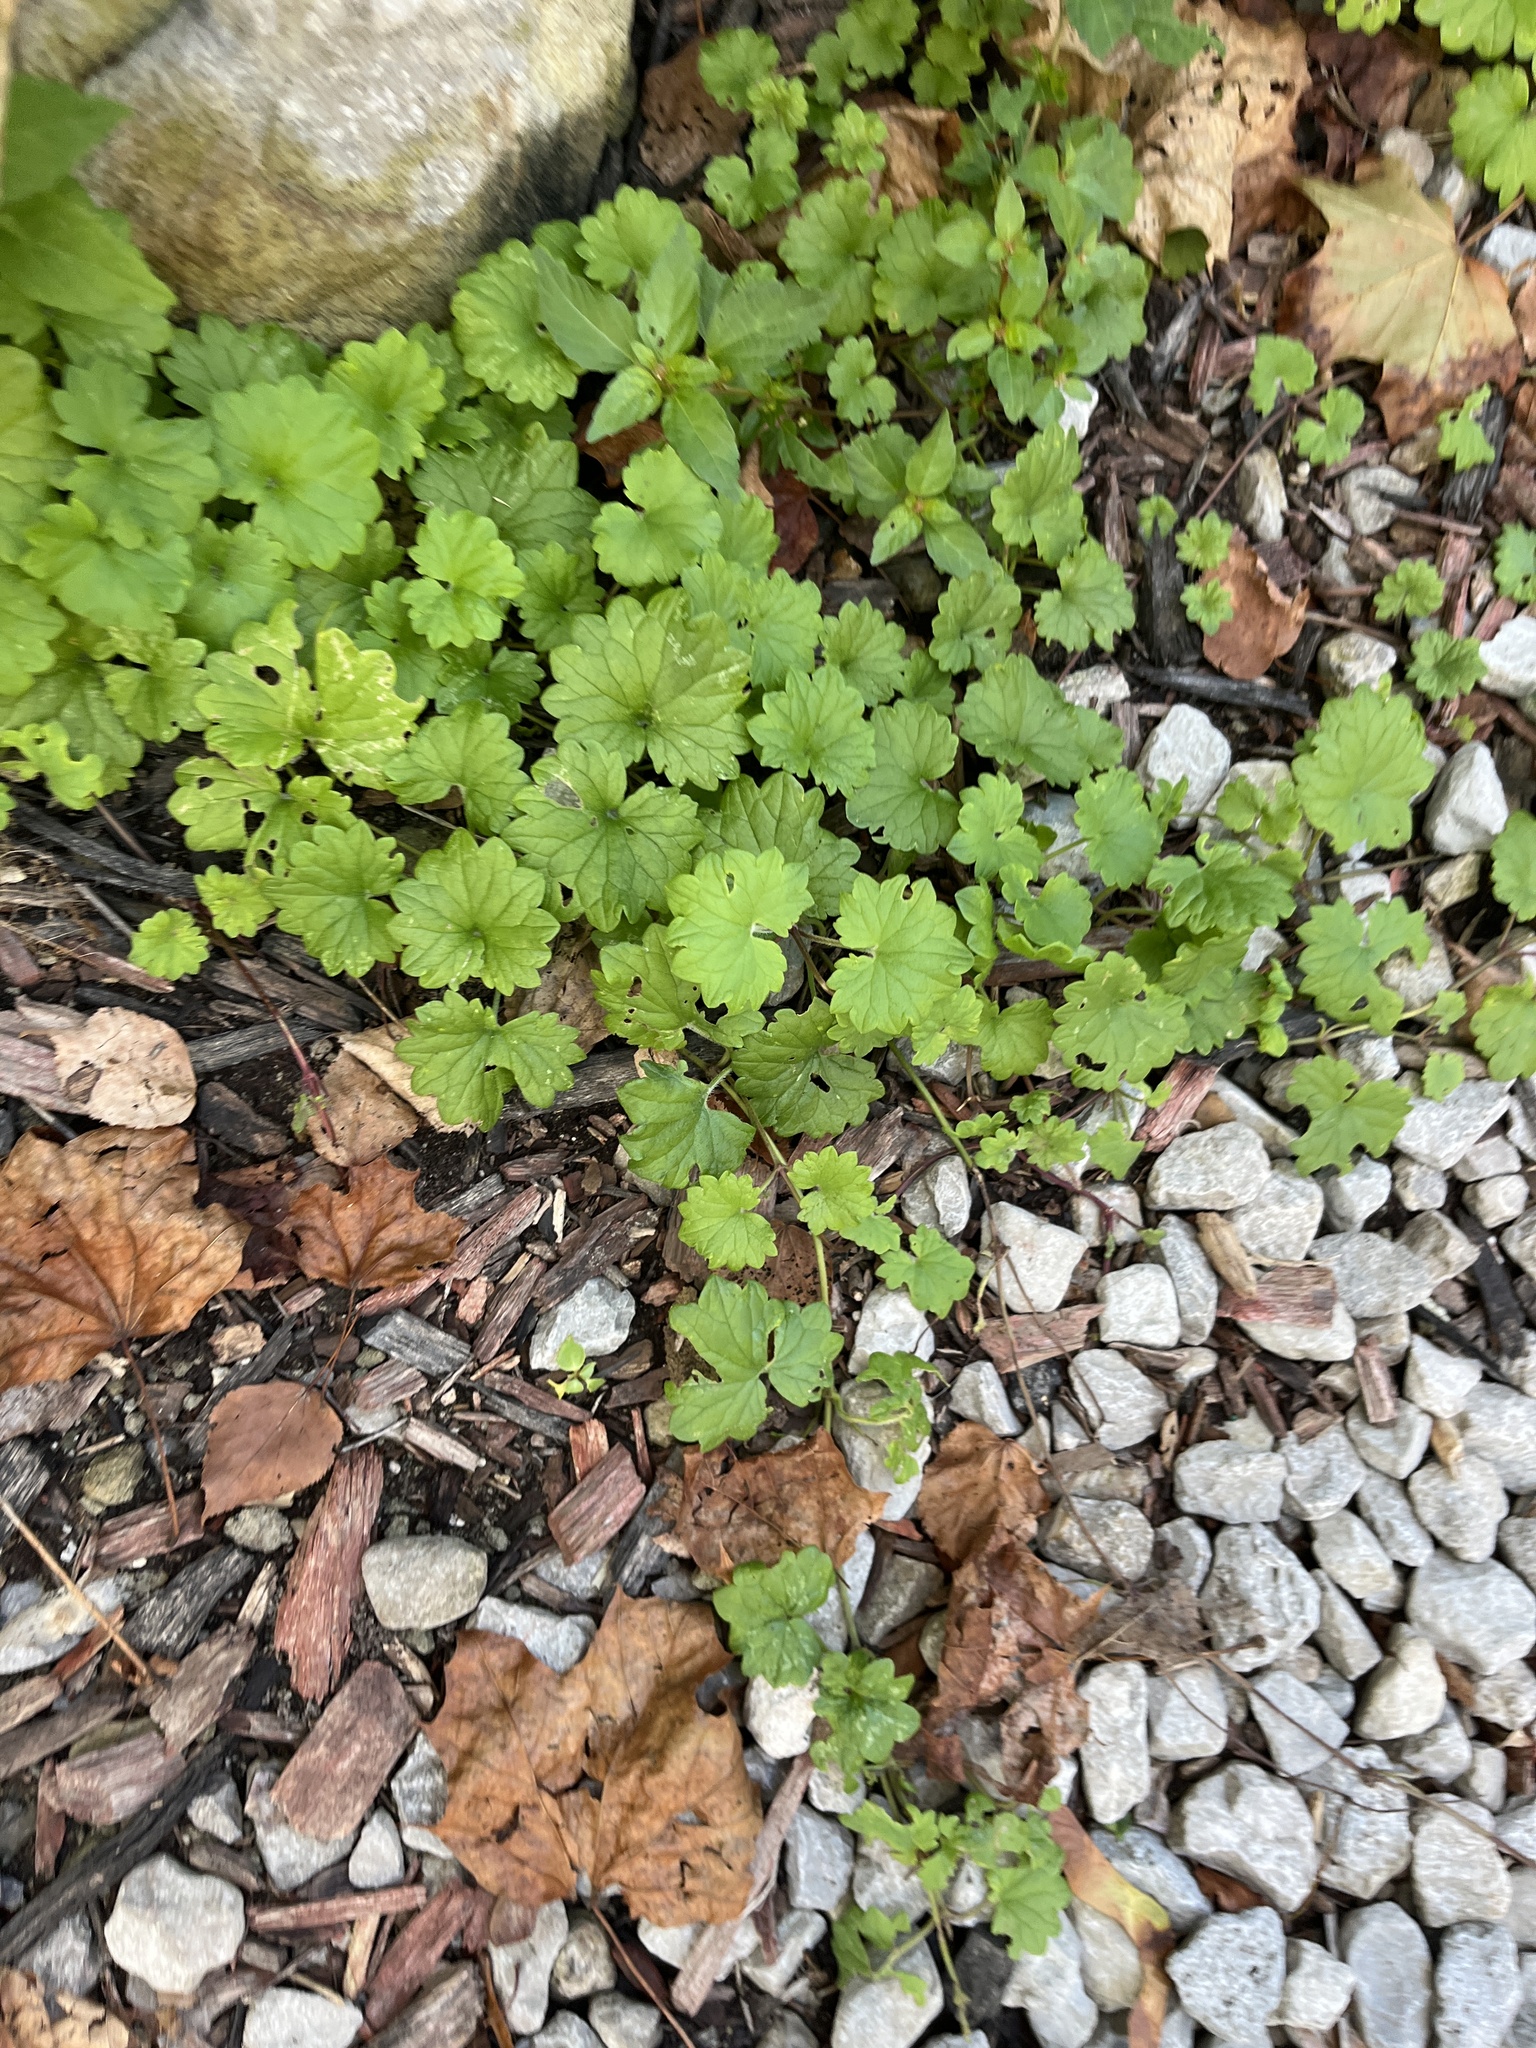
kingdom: Plantae
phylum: Tracheophyta
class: Magnoliopsida
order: Lamiales
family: Lamiaceae
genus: Glechoma
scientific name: Glechoma hederacea
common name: Ground ivy
